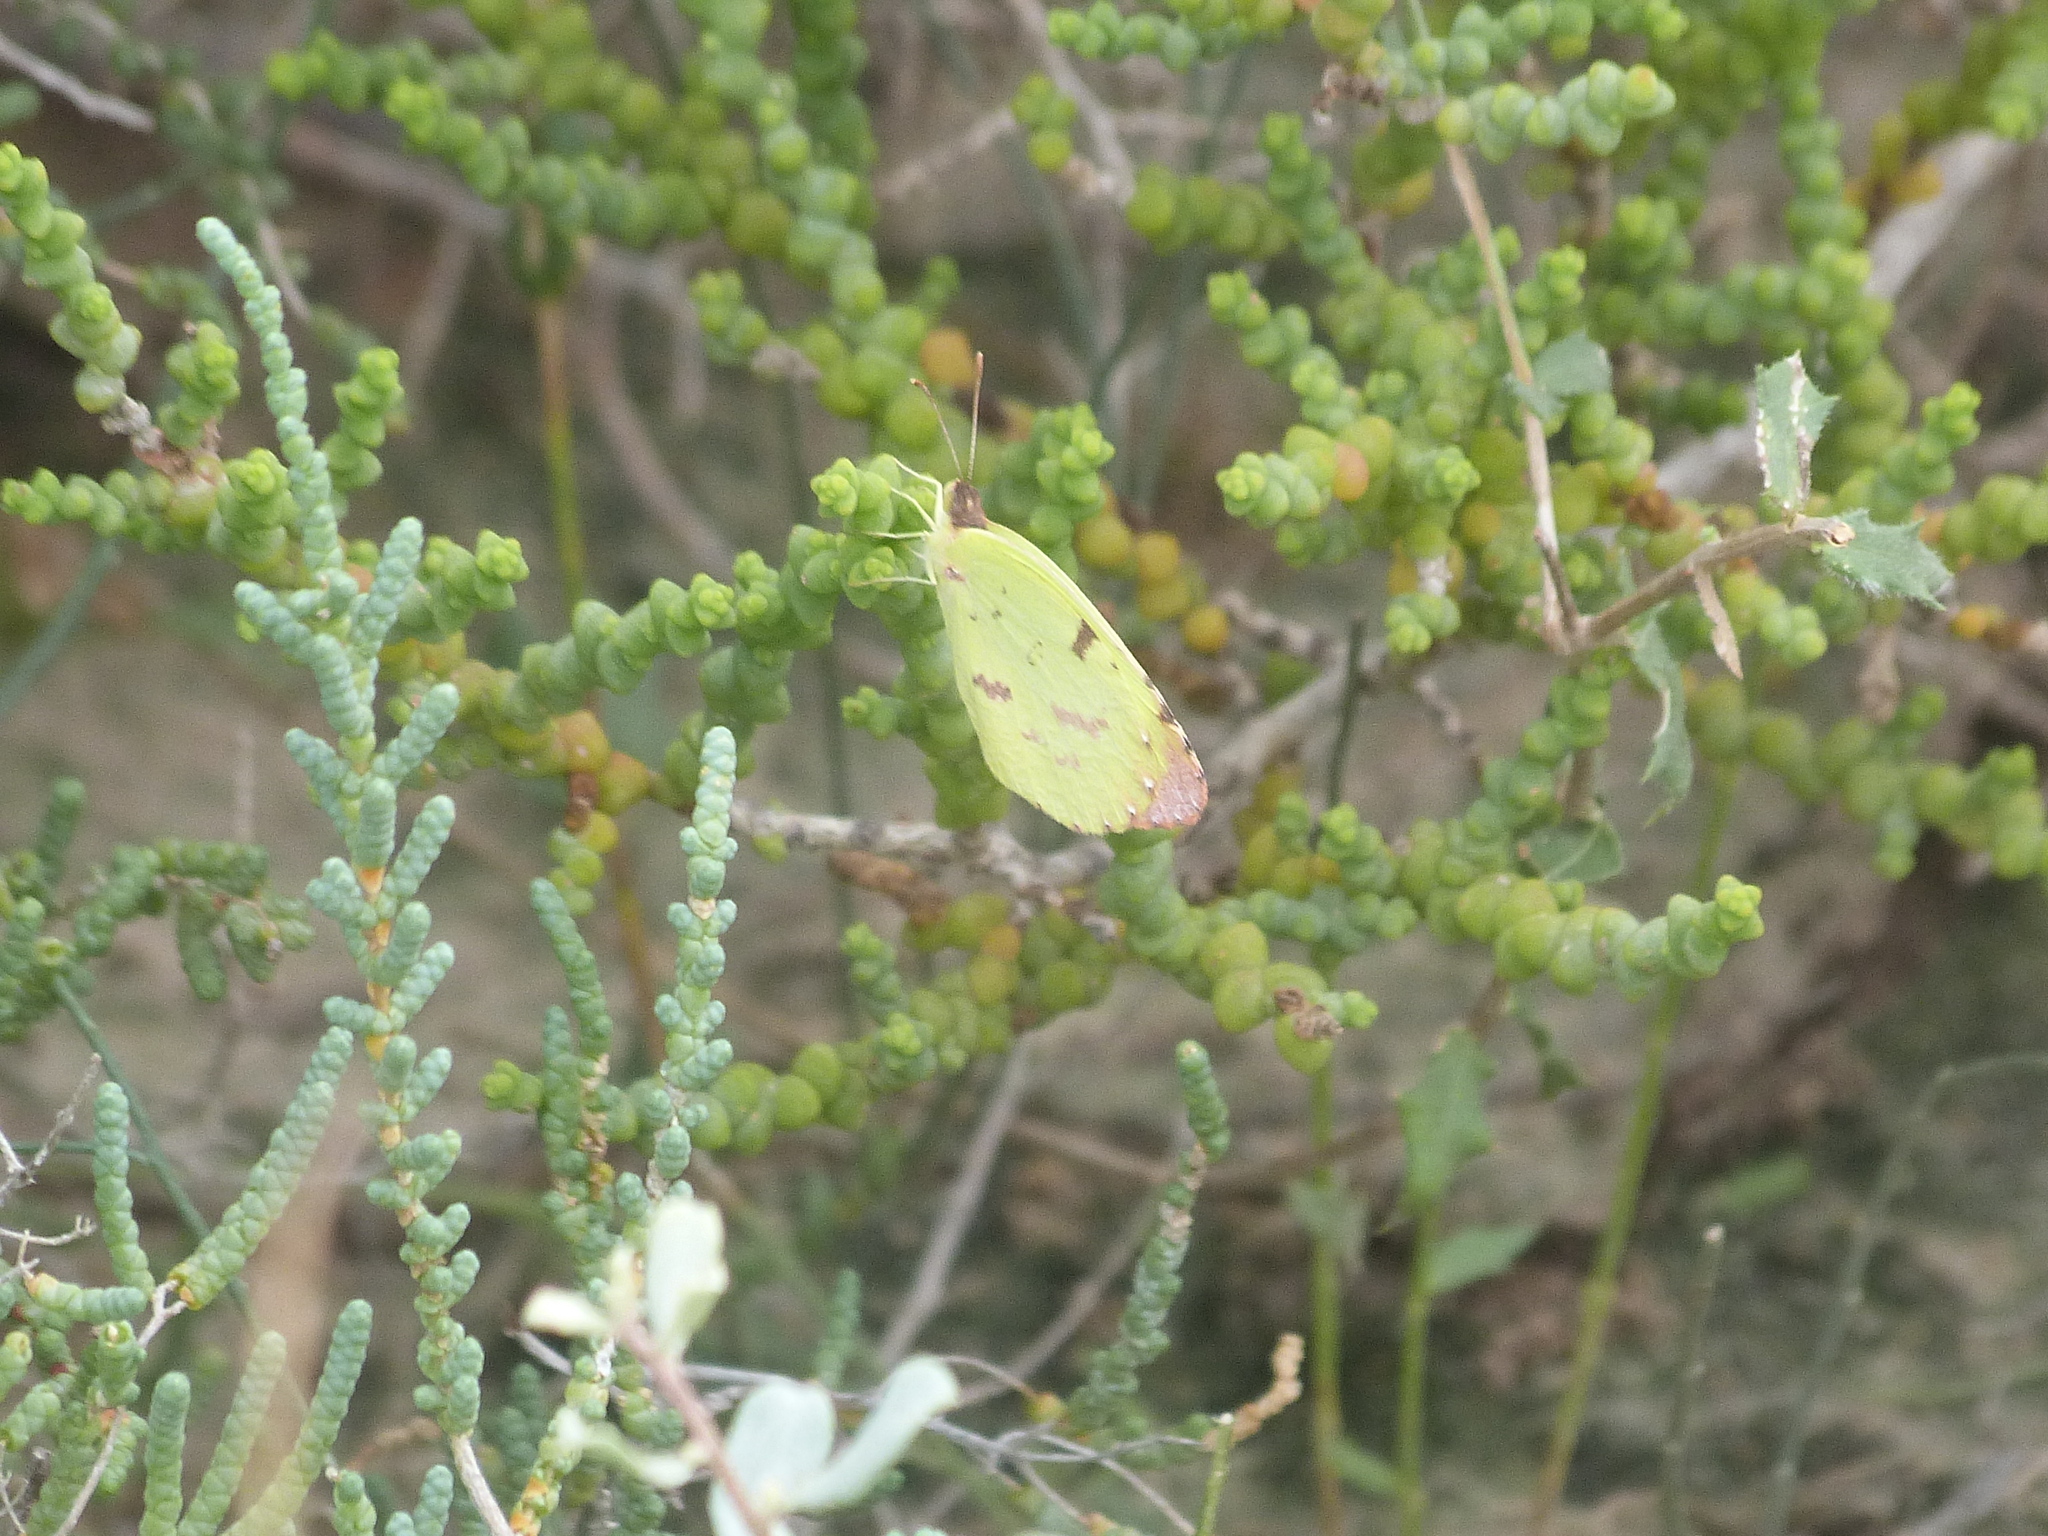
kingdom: Animalia
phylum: Arthropoda
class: Insecta
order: Lepidoptera
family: Pieridae
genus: Teriocolias
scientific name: Teriocolias
